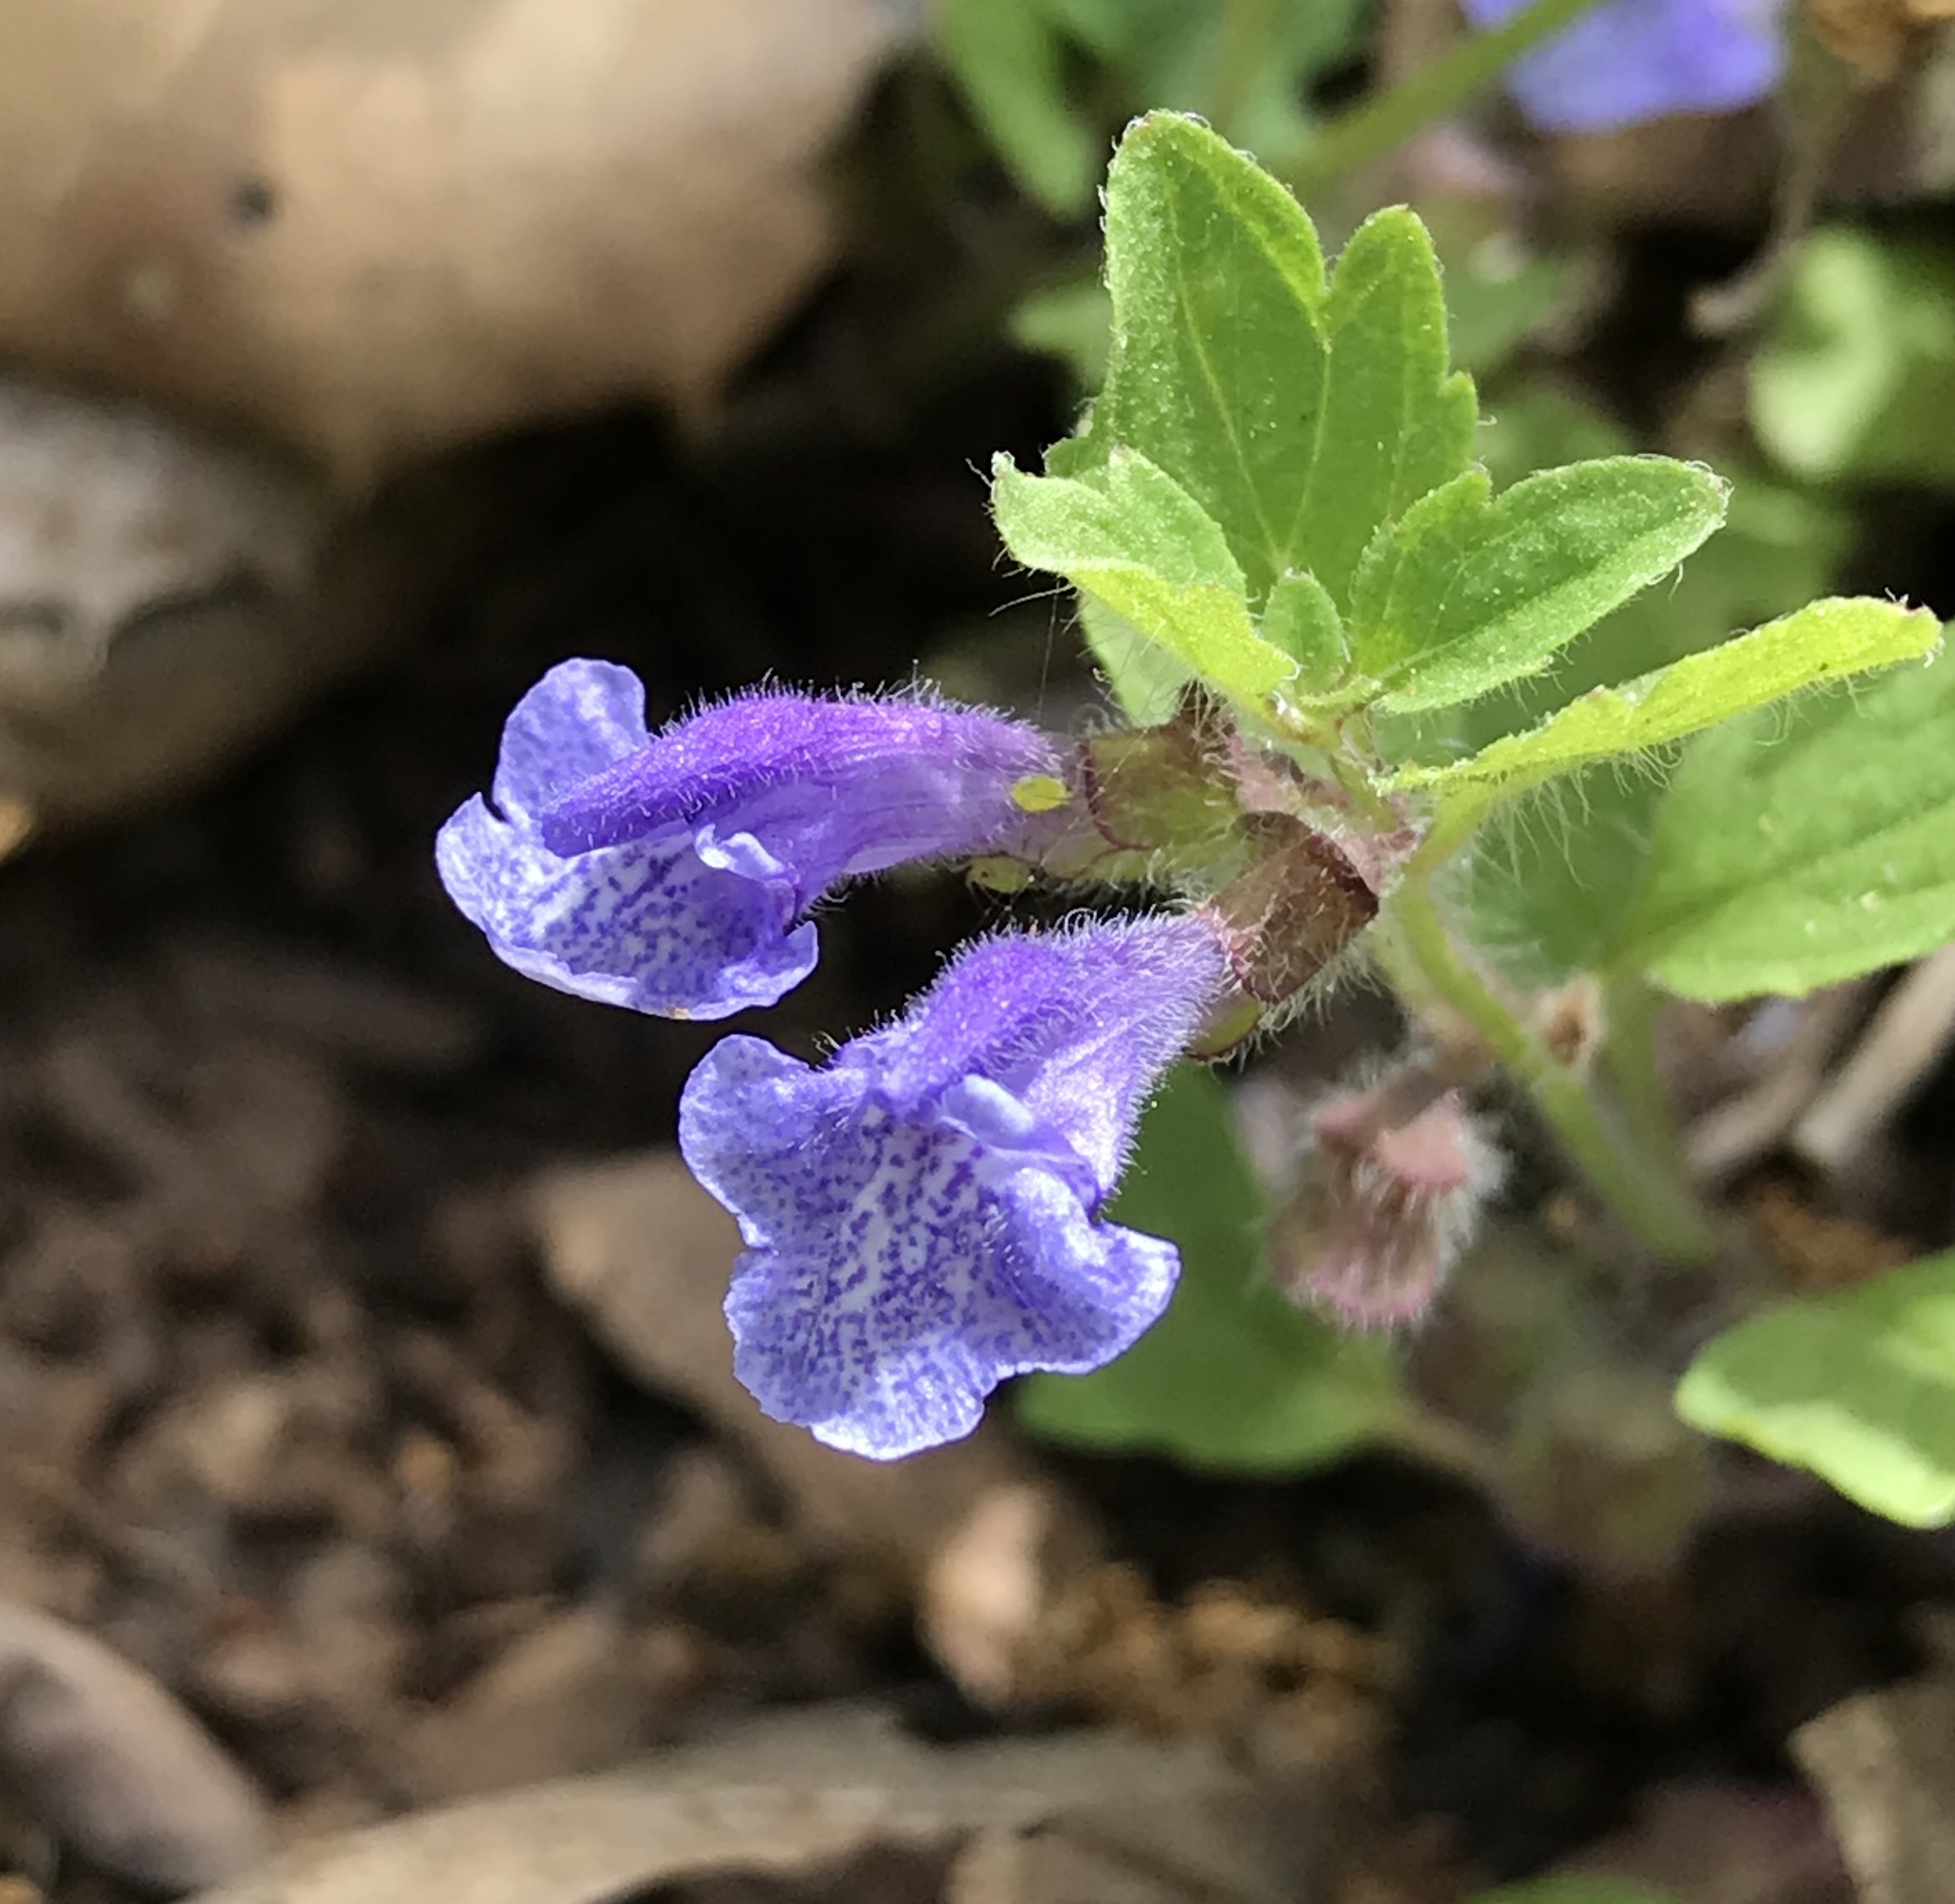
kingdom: Plantae
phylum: Tracheophyta
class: Magnoliopsida
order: Lamiales
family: Lamiaceae
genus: Scutellaria
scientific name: Scutellaria tuberosa
